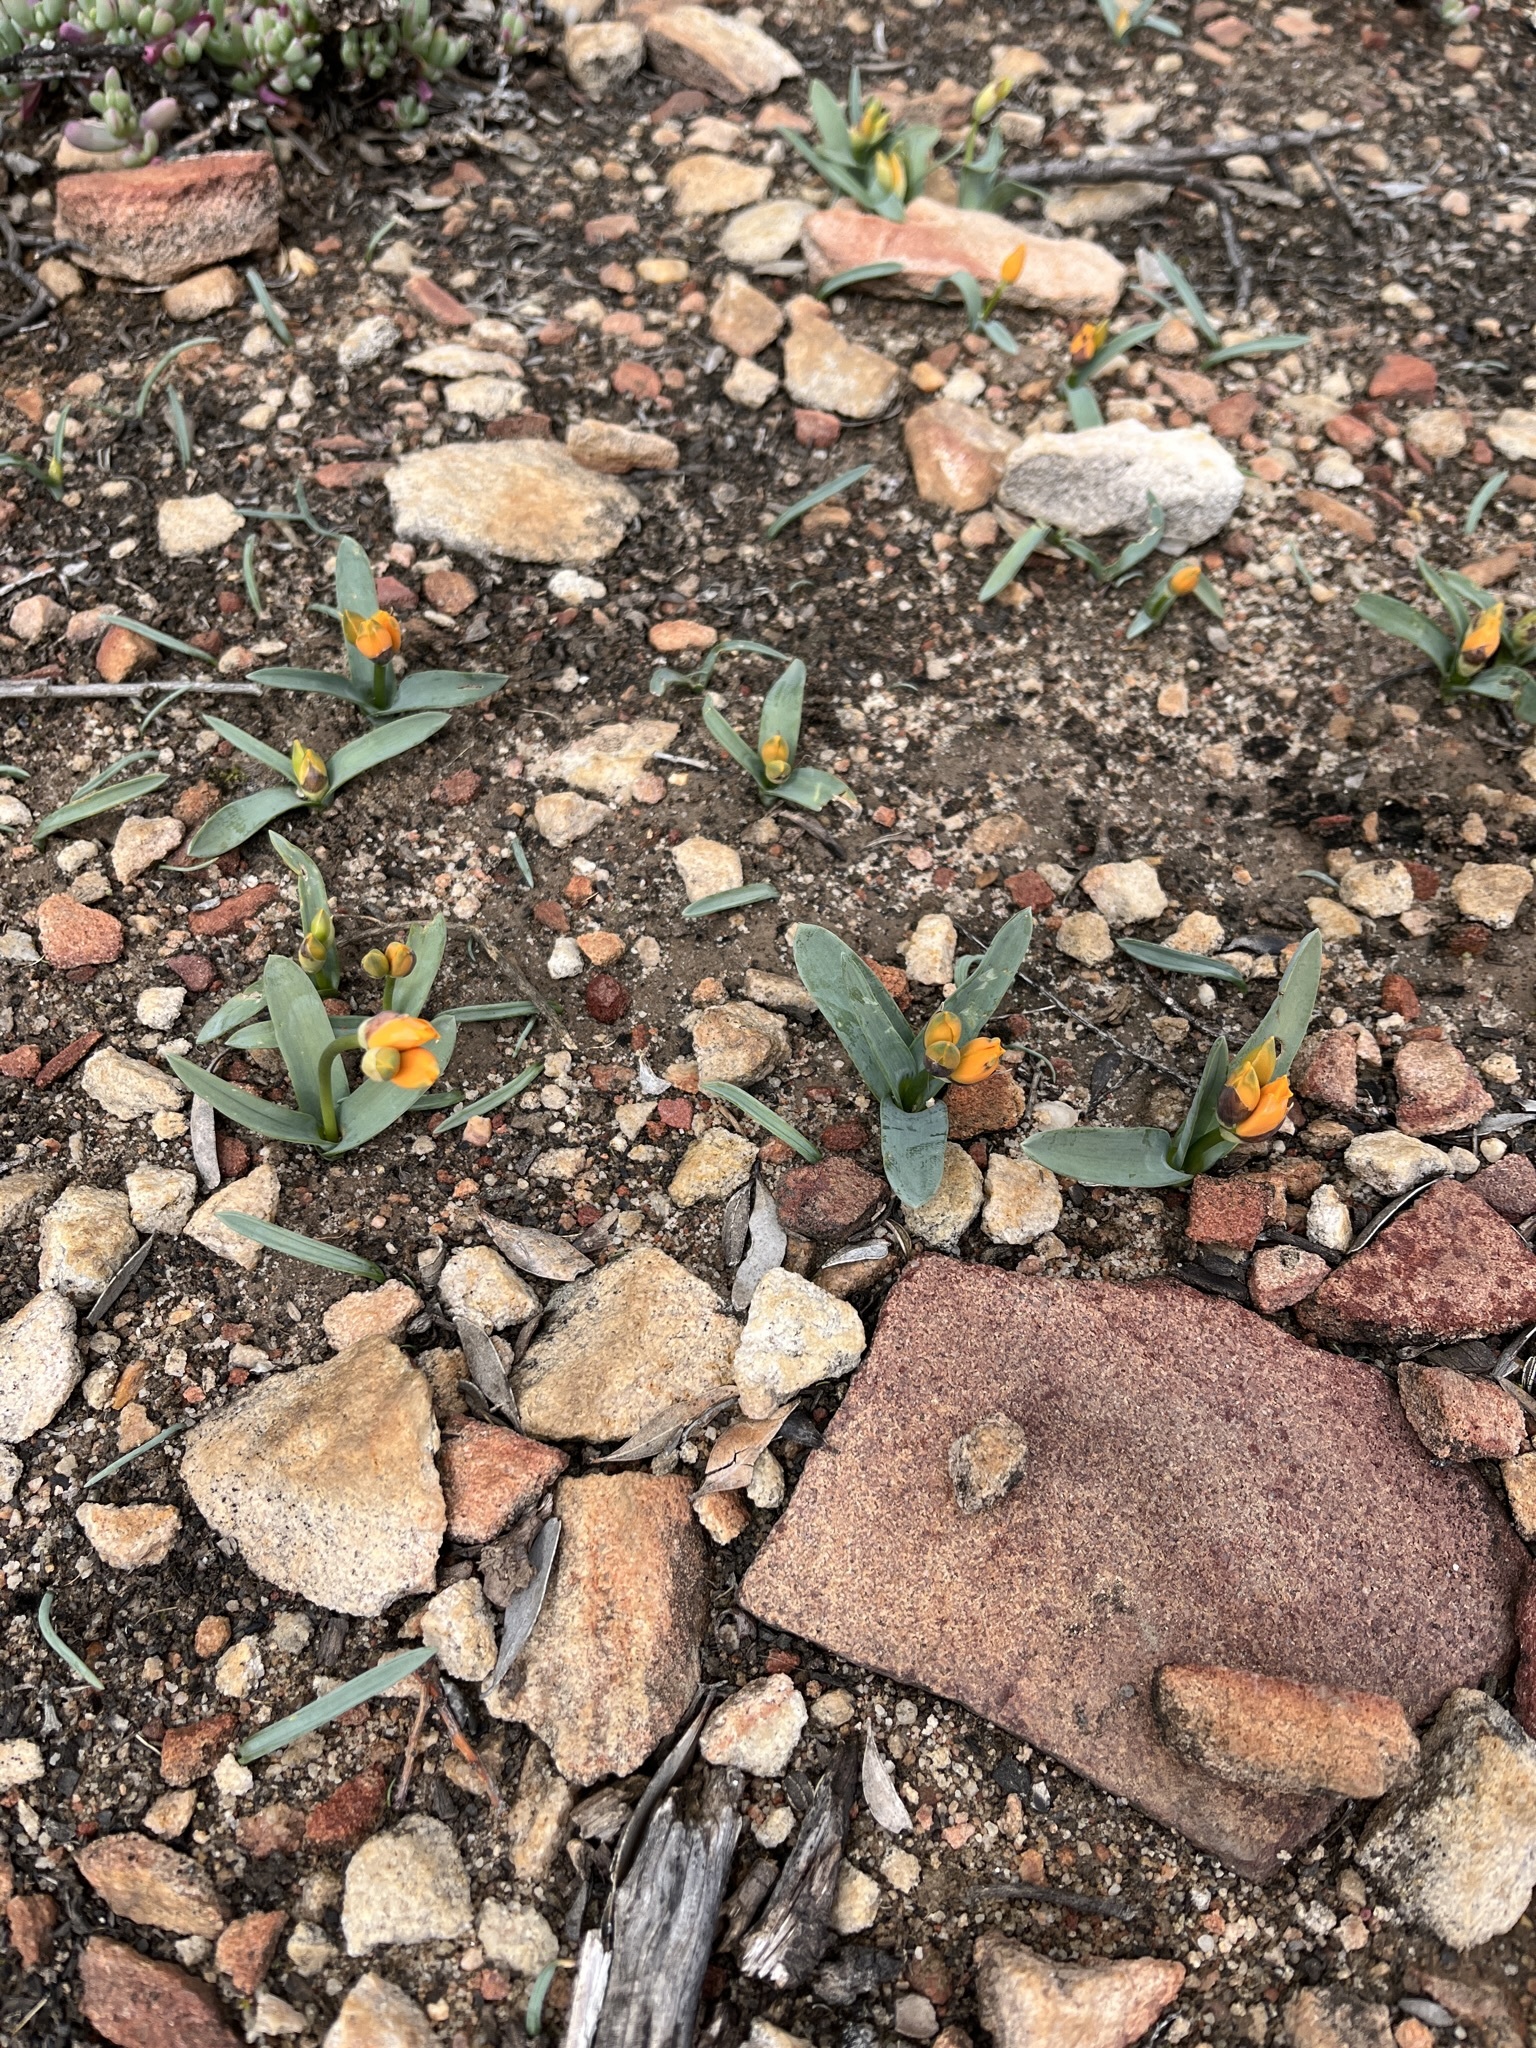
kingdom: Plantae
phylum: Tracheophyta
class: Liliopsida
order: Asparagales
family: Asparagaceae
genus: Ornithogalum
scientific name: Ornithogalum maculatum
